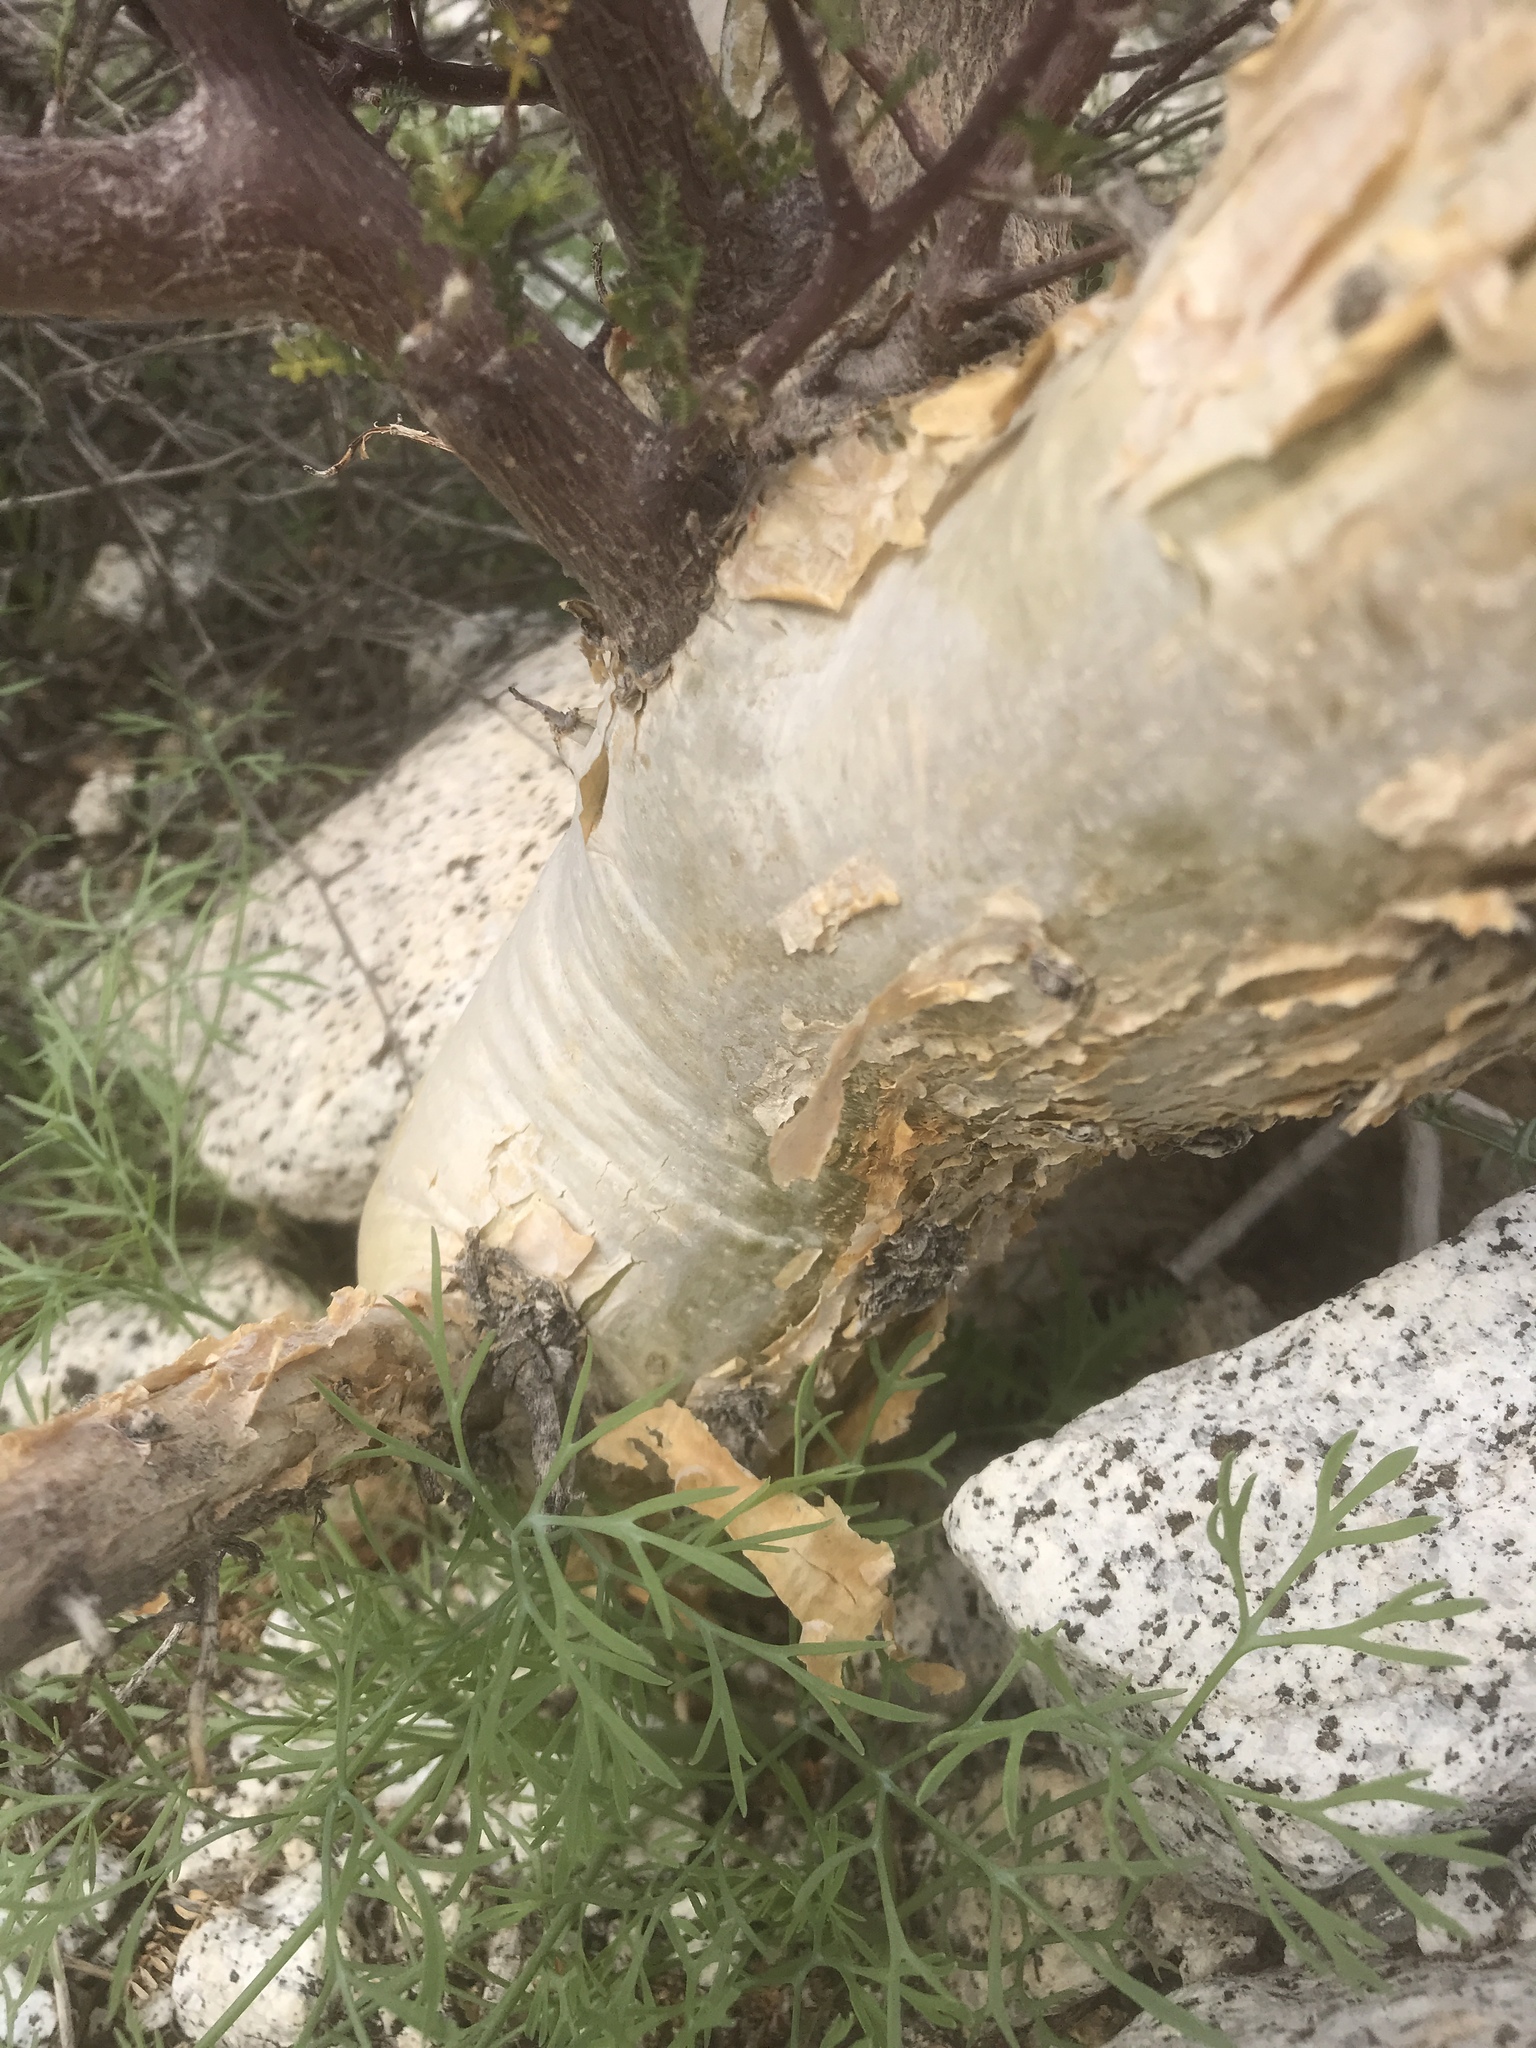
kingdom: Plantae
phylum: Tracheophyta
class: Magnoliopsida
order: Sapindales
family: Burseraceae
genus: Bursera
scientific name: Bursera microphylla
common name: Elephant tree
